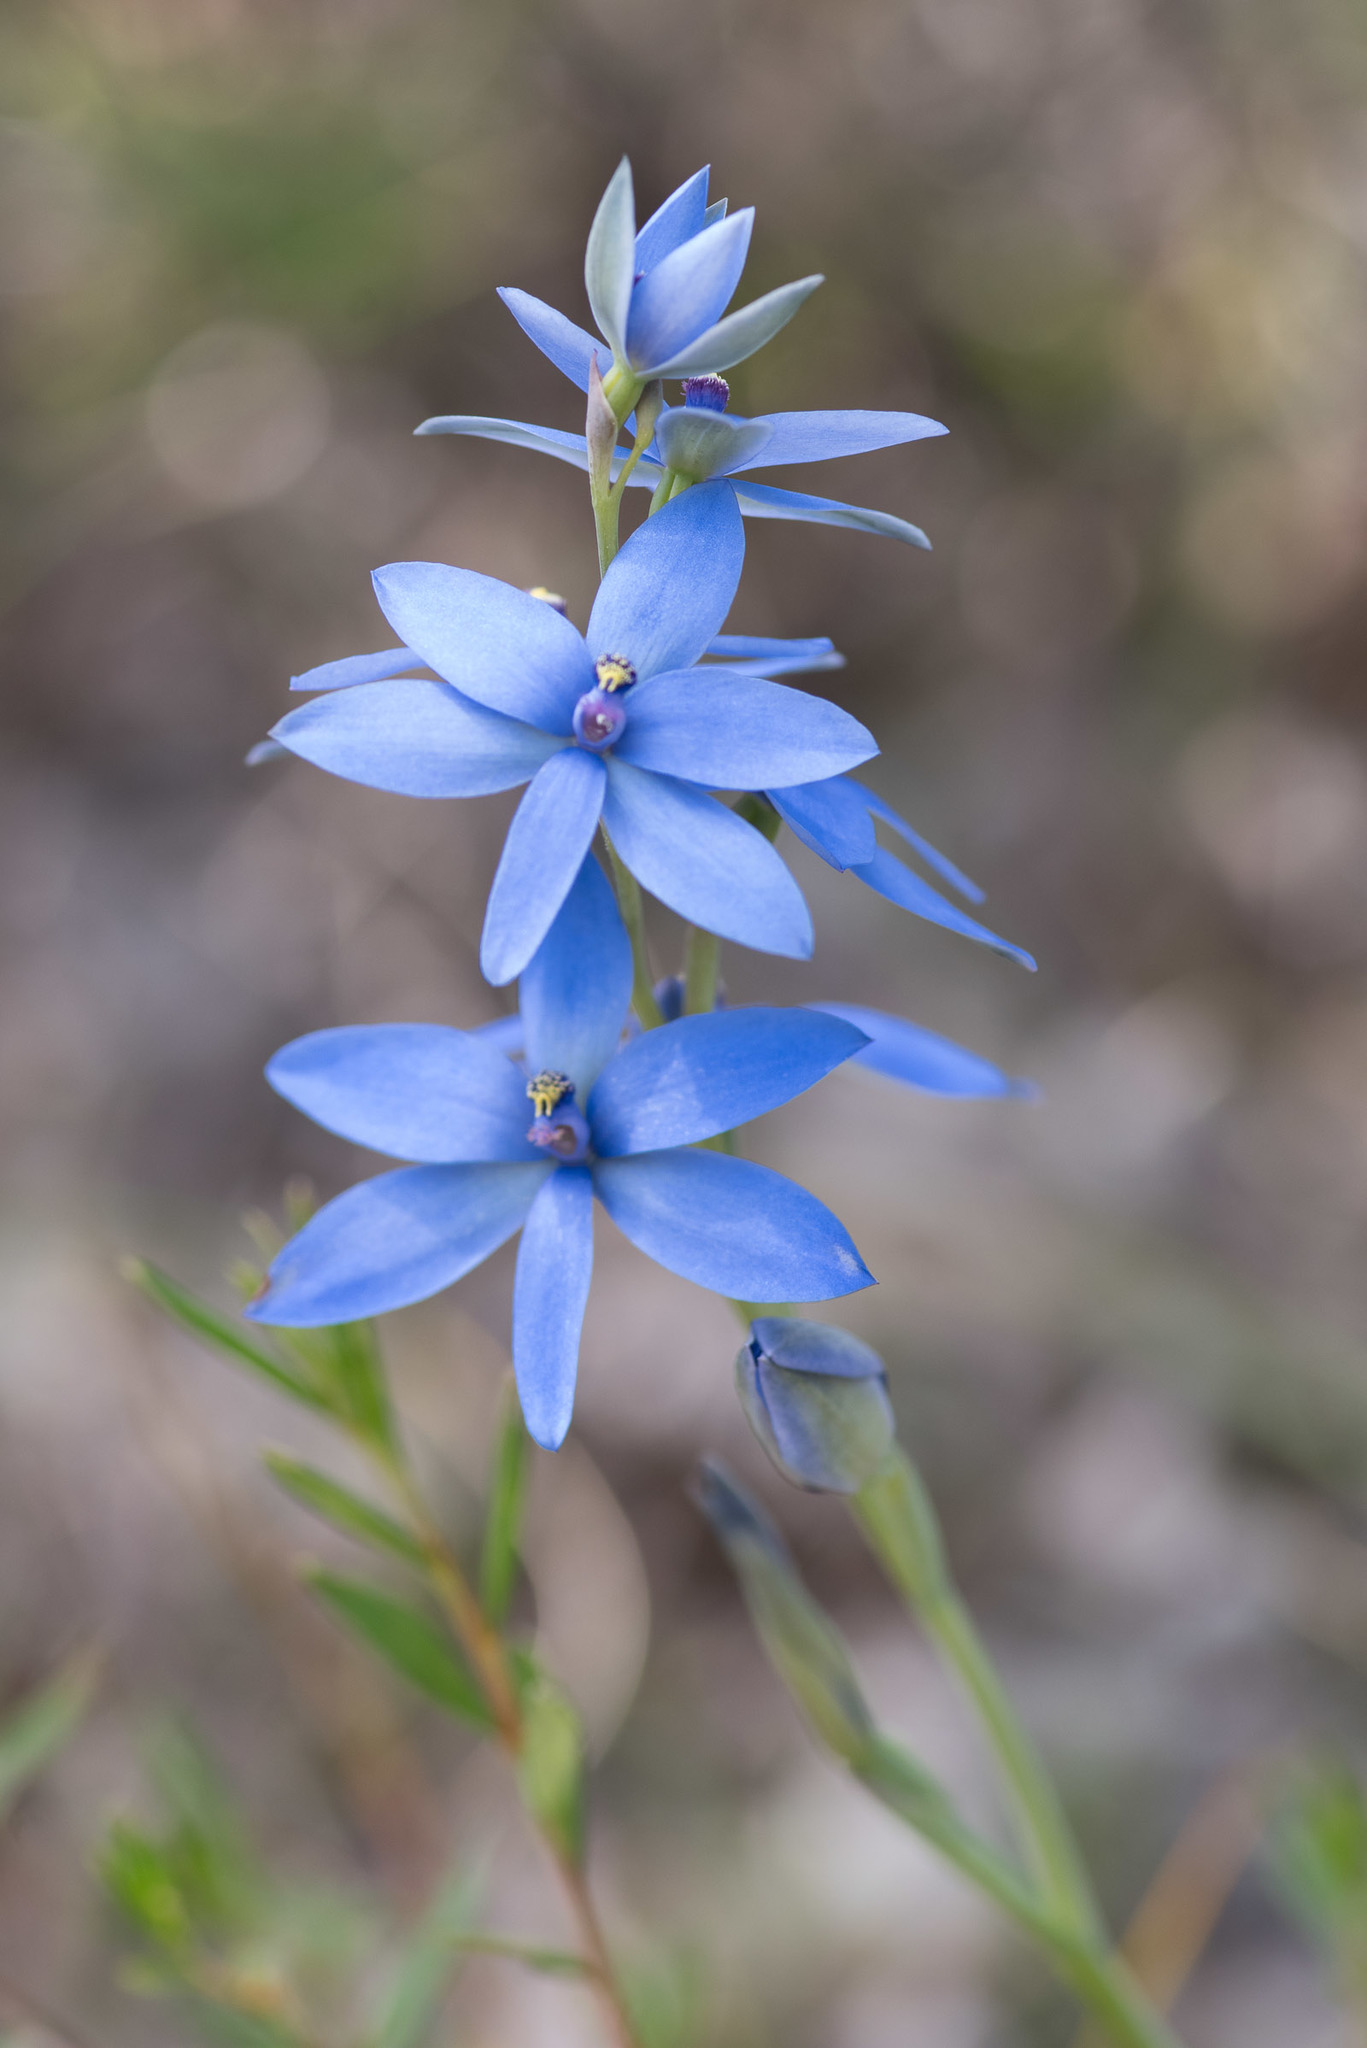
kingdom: Plantae
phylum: Tracheophyta
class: Liliopsida
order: Asparagales
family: Orchidaceae
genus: Thelymitra
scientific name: Thelymitra crinita
